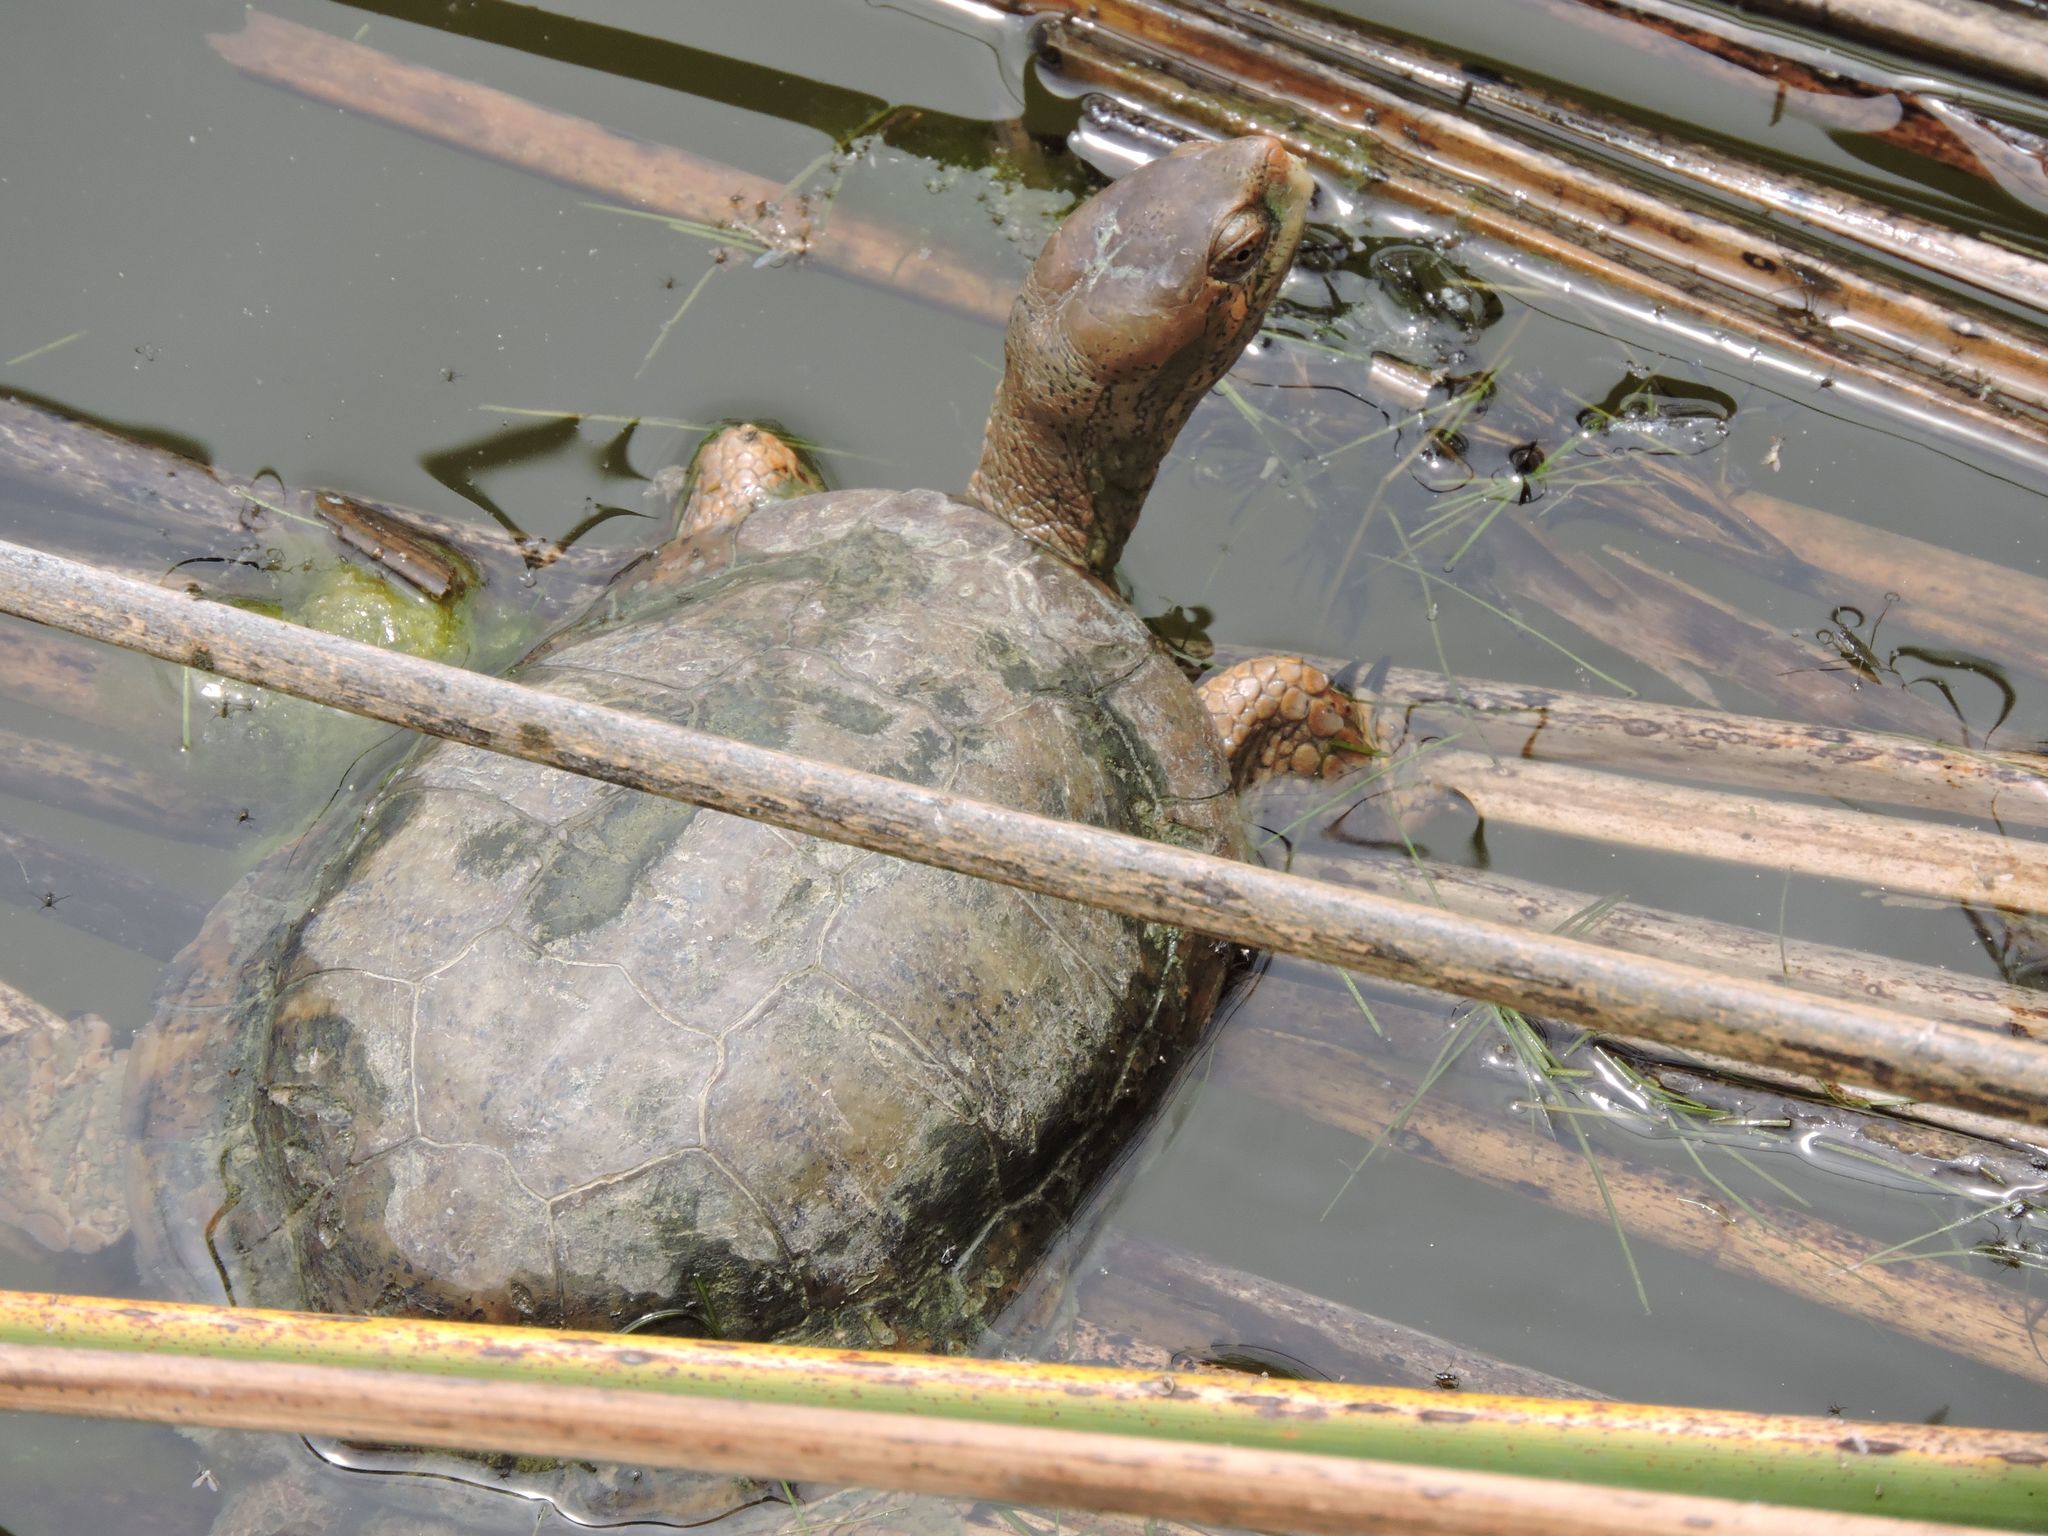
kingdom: Animalia
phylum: Chordata
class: Testudines
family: Emydidae
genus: Actinemys
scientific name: Actinemys marmorata
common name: Western pond turtle
